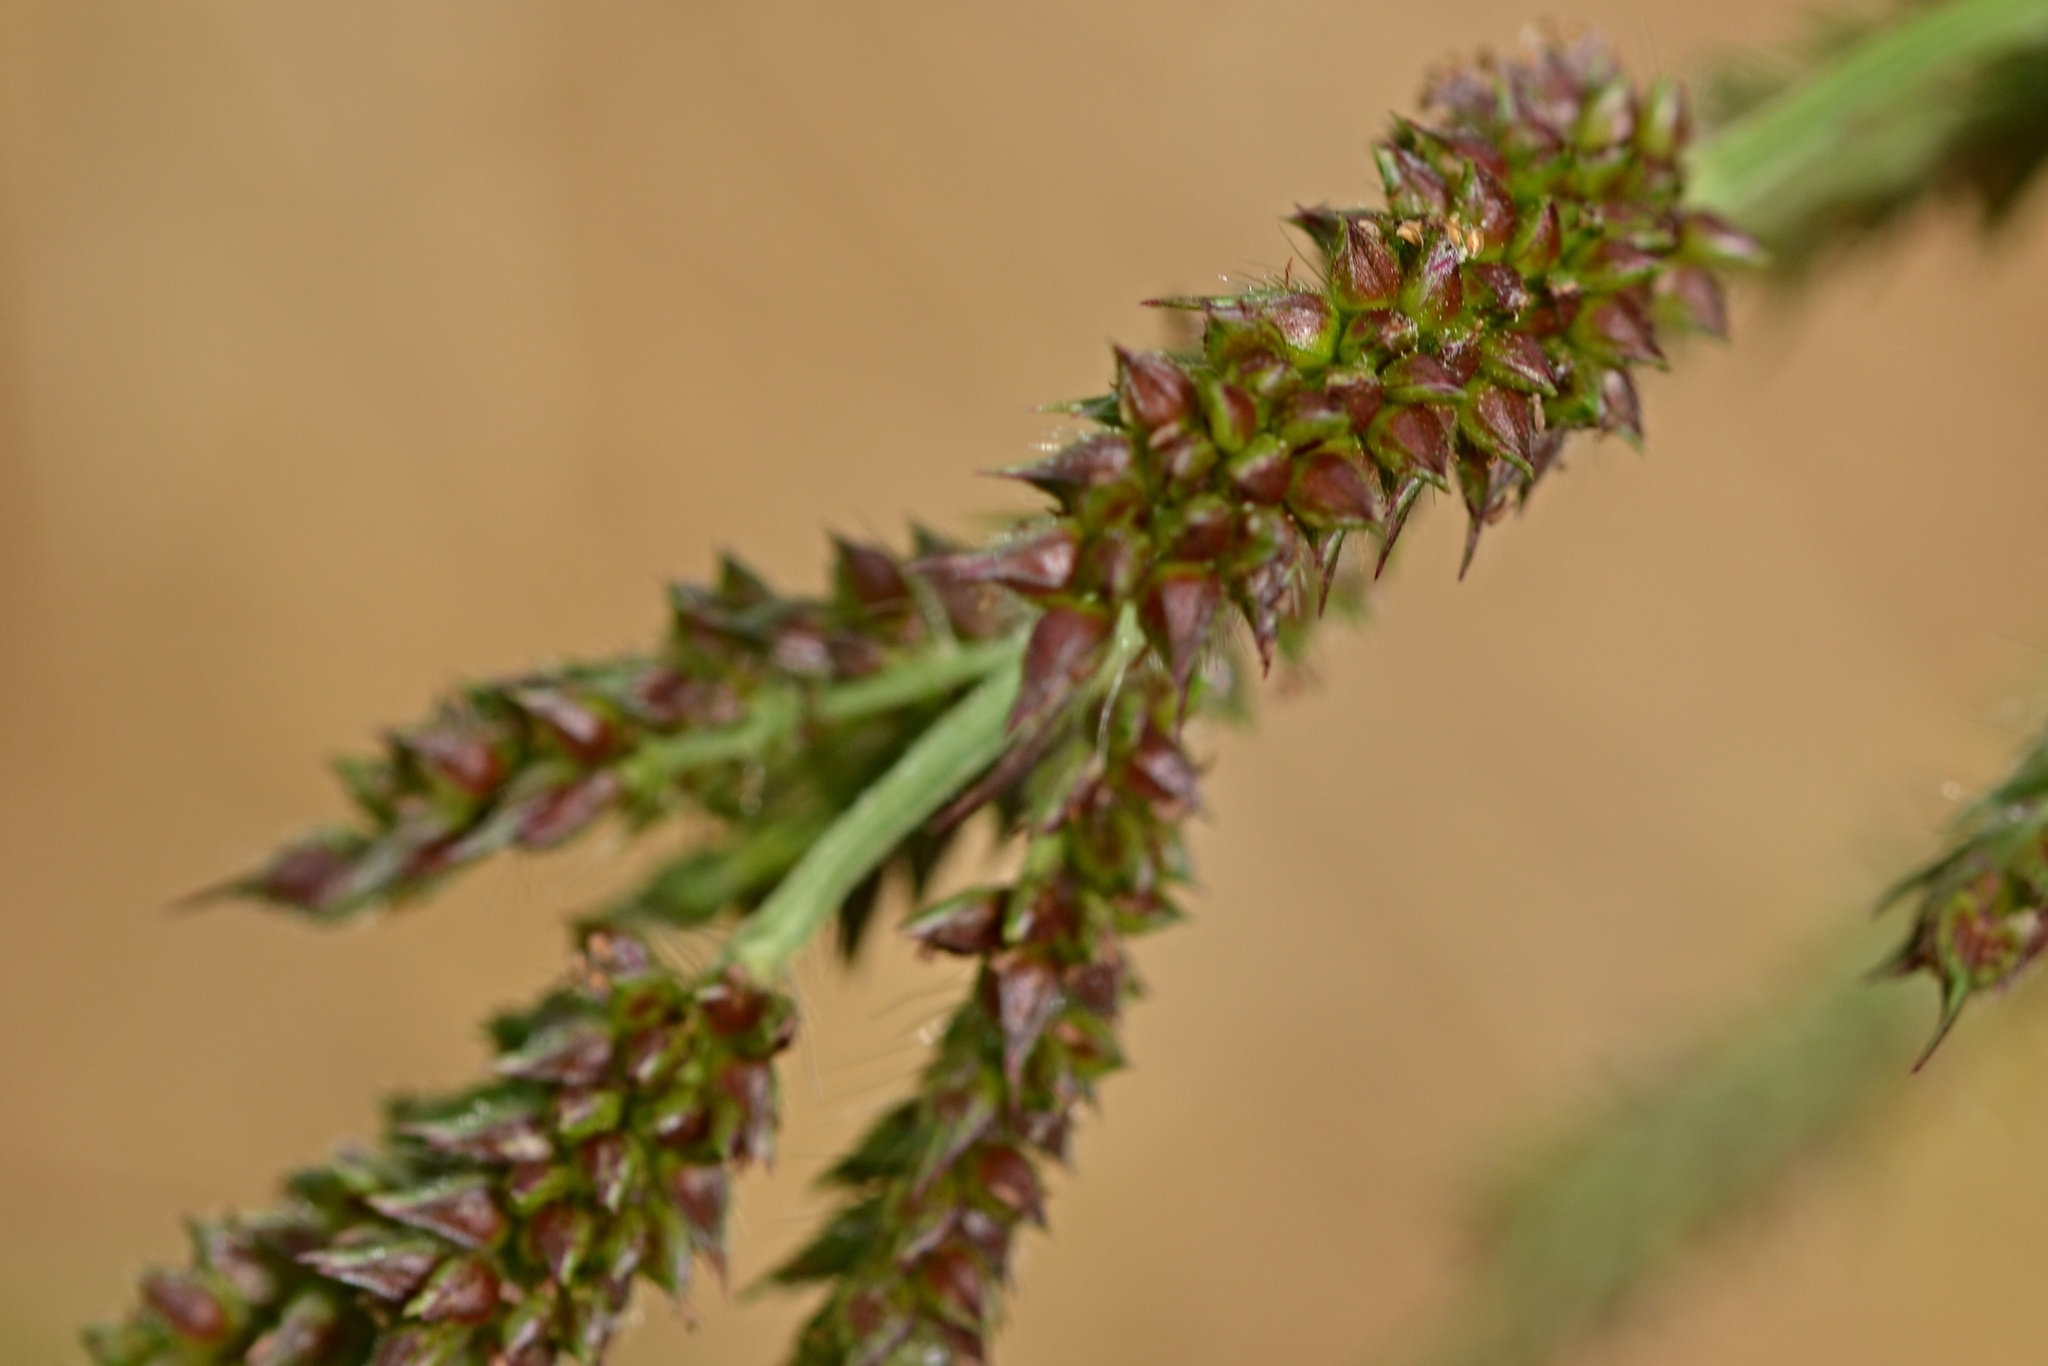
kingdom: Plantae
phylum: Tracheophyta
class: Liliopsida
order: Poales
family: Poaceae
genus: Echinochloa
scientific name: Echinochloa crus-galli
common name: Cockspur
